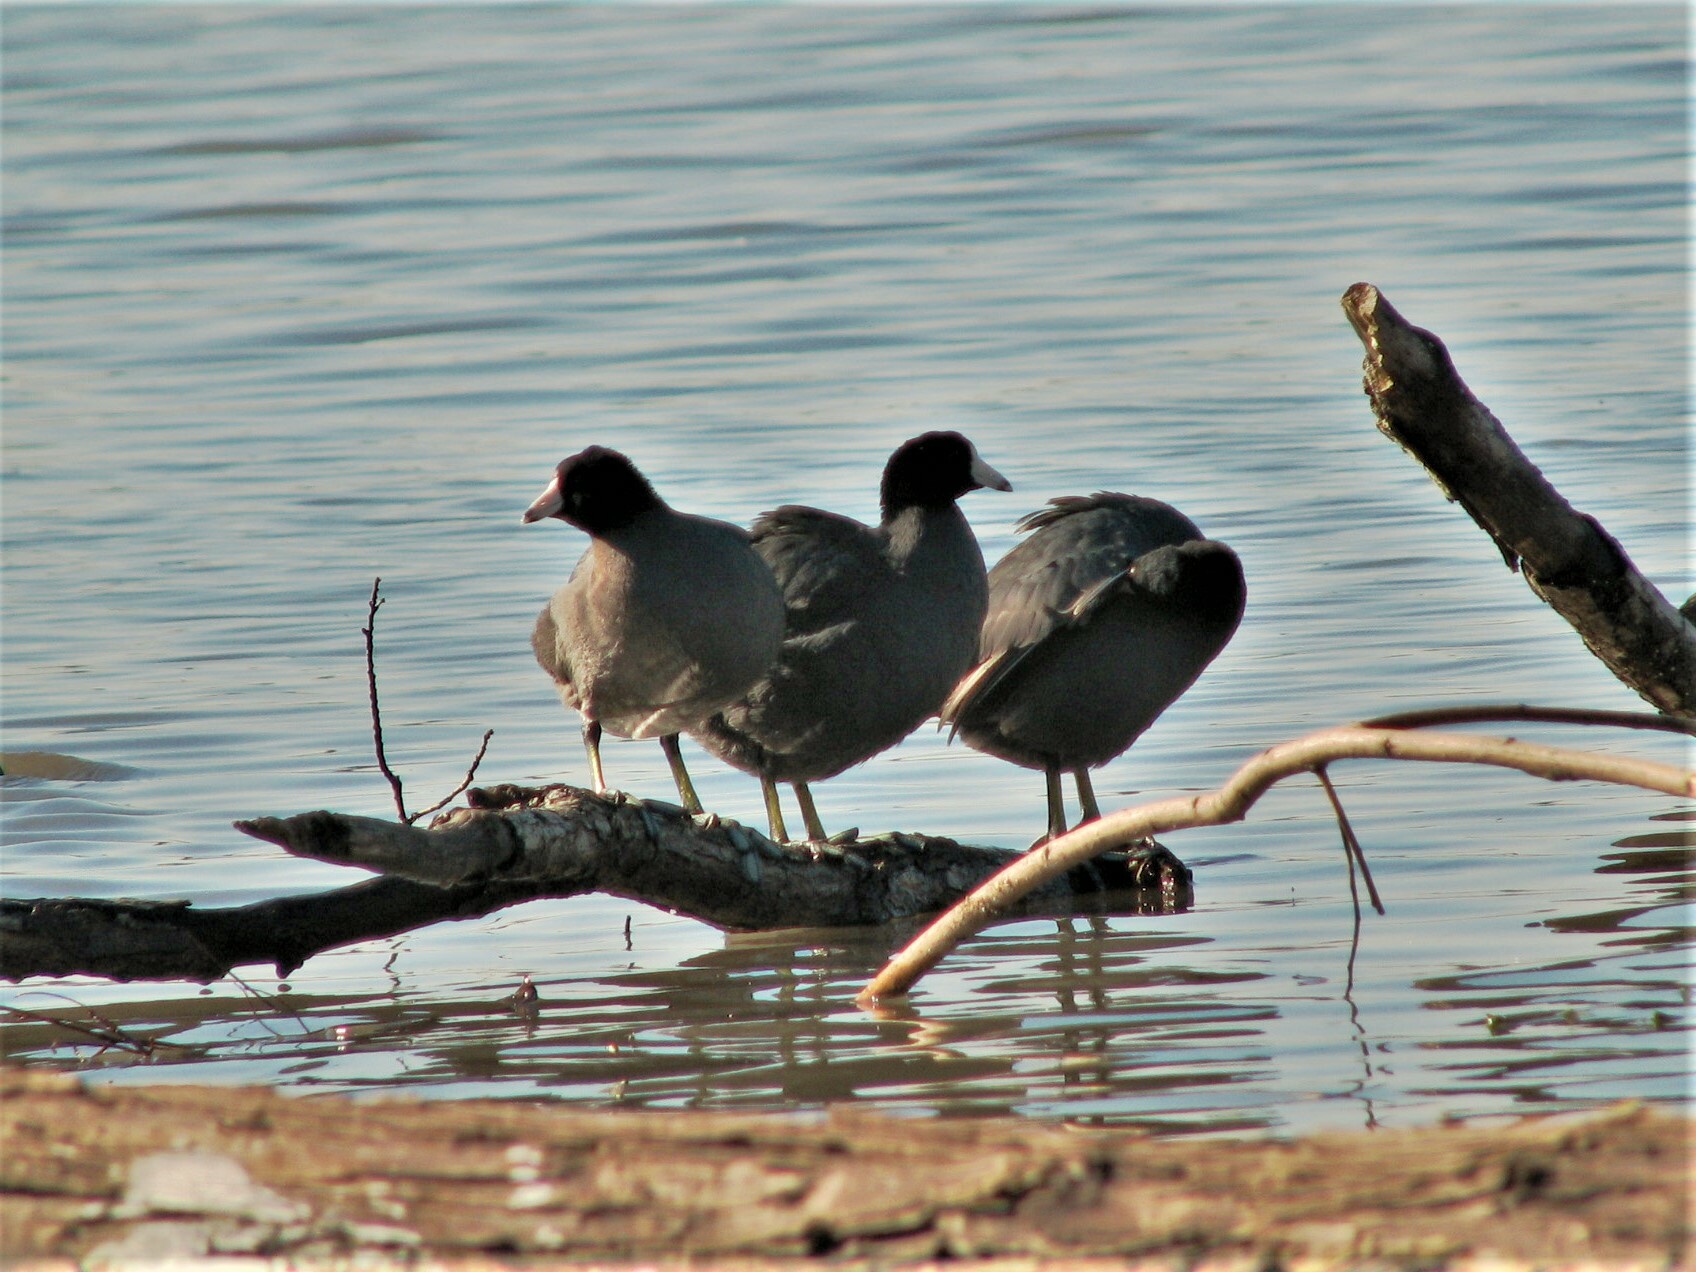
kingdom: Animalia
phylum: Chordata
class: Aves
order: Gruiformes
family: Rallidae
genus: Fulica
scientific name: Fulica americana
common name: American coot
